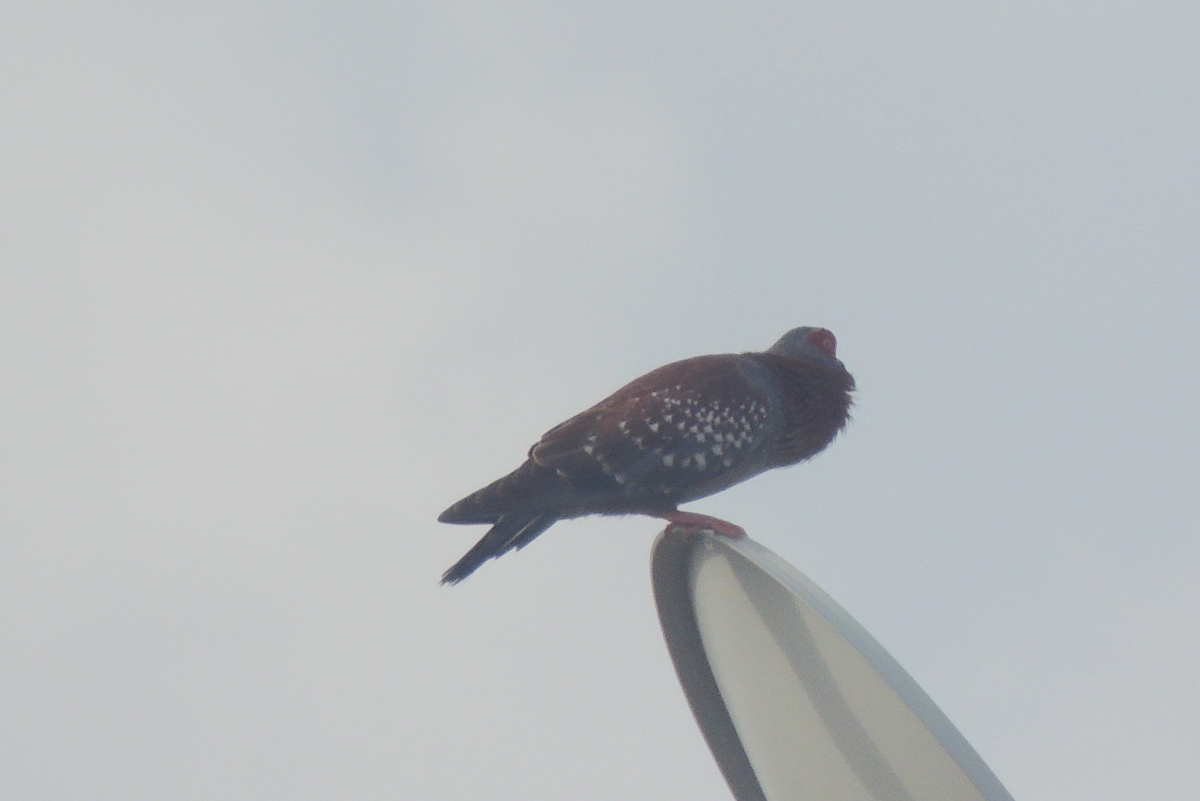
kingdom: Animalia
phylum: Chordata
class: Aves
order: Columbiformes
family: Columbidae
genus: Columba
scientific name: Columba guinea
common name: Speckled pigeon
